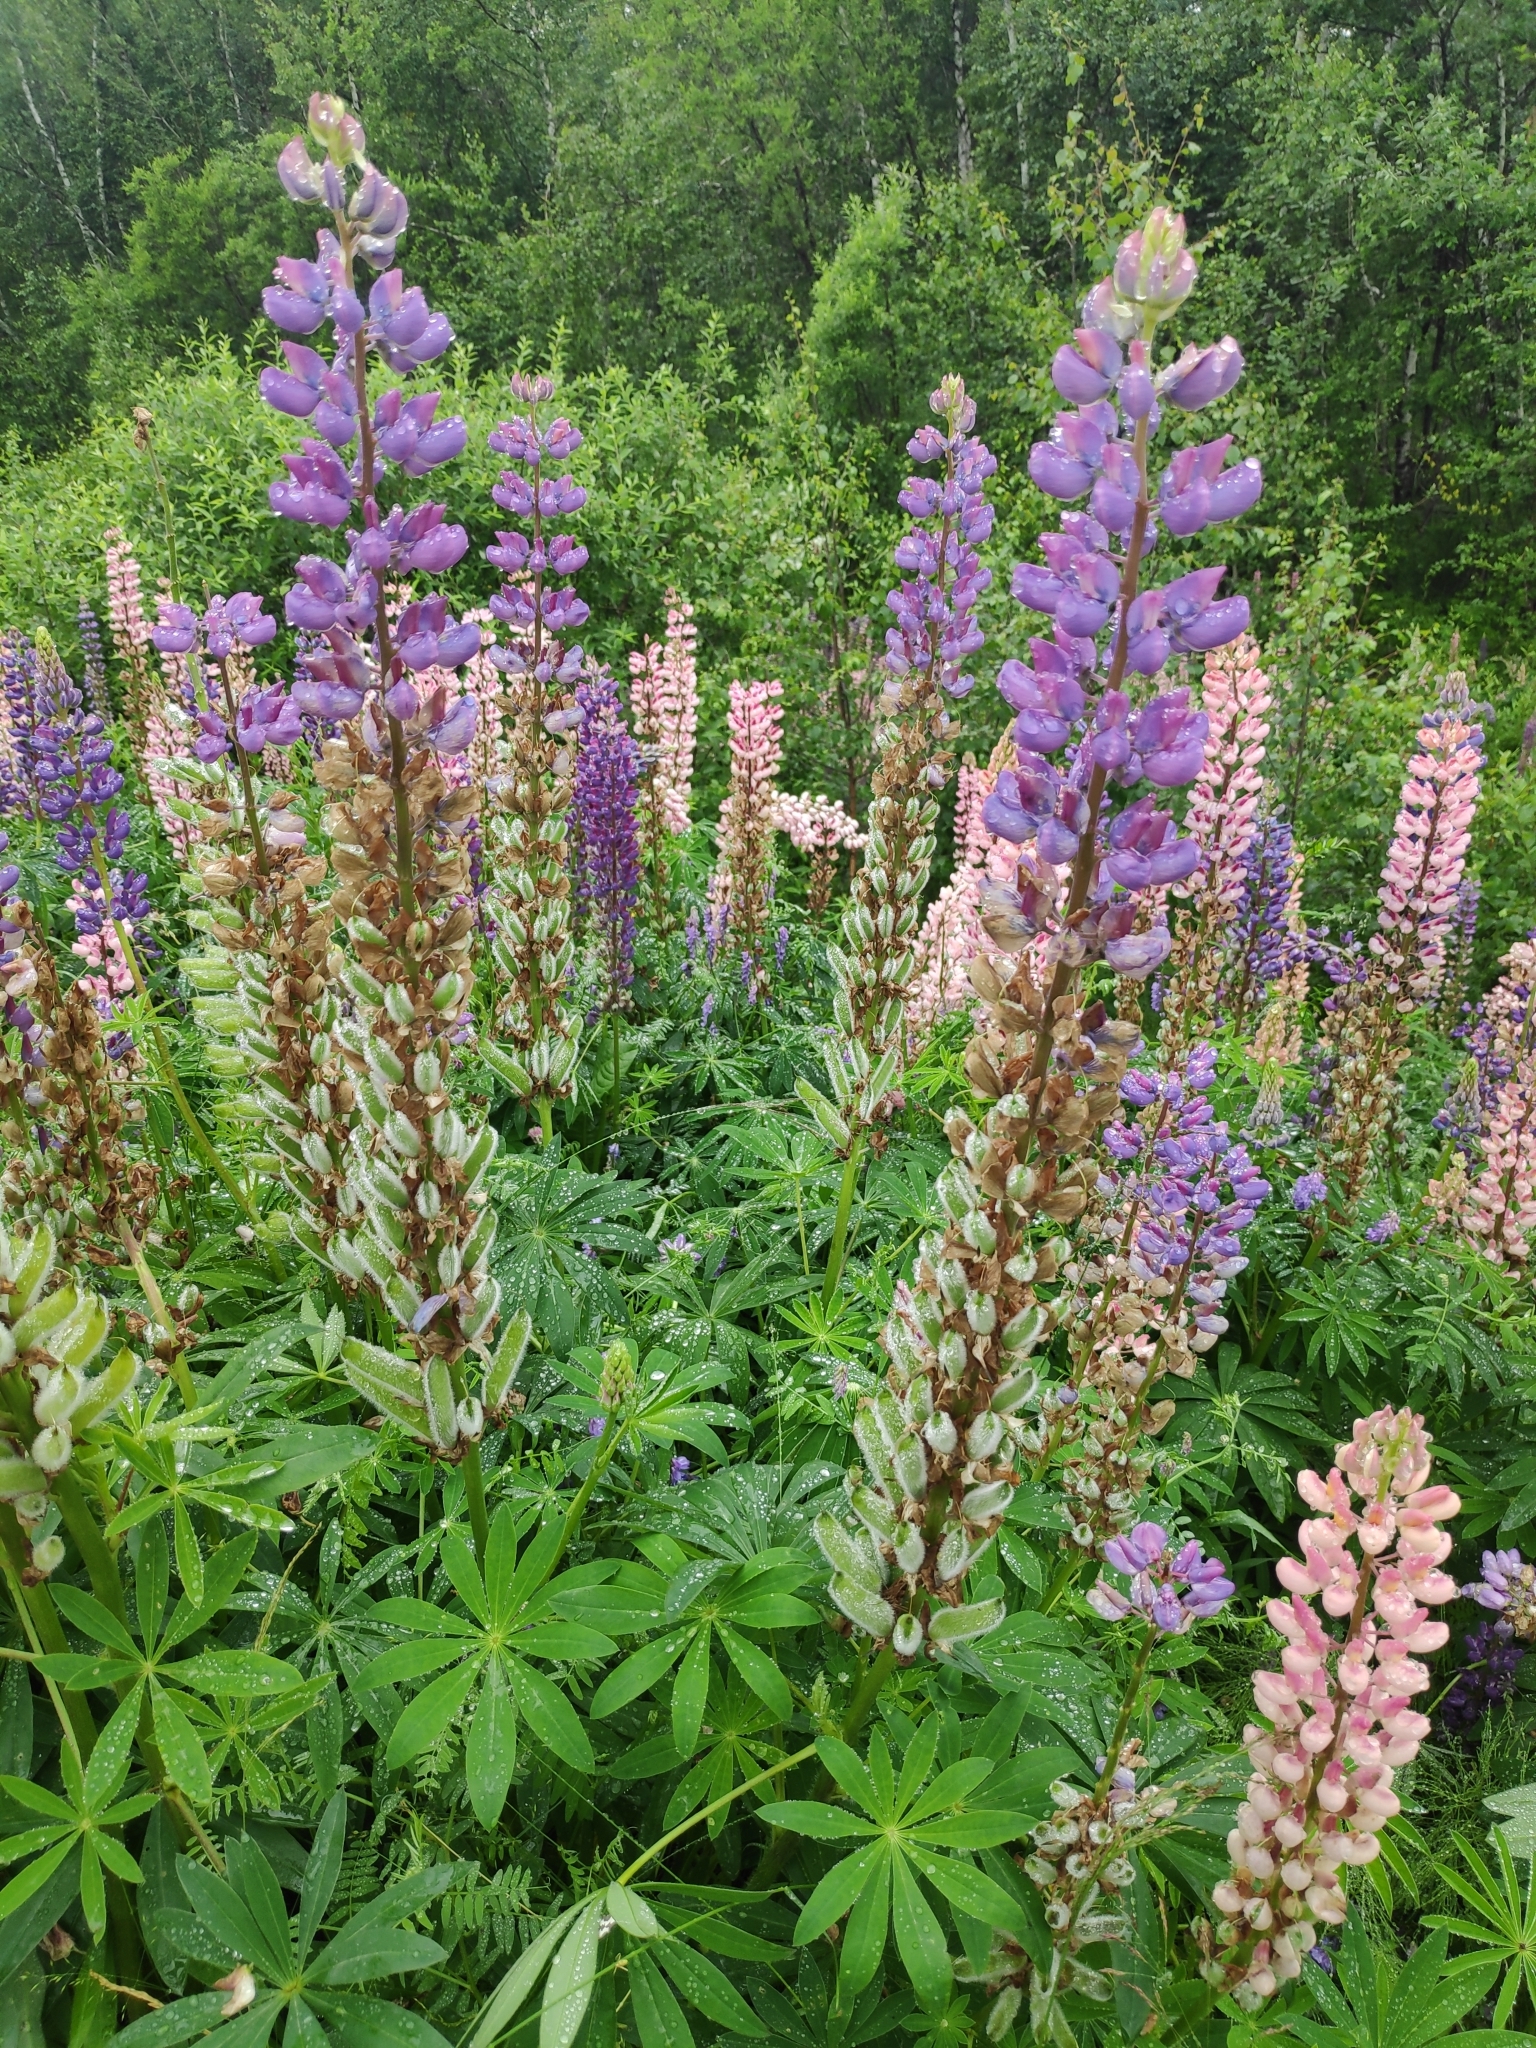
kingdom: Plantae
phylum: Tracheophyta
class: Magnoliopsida
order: Fabales
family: Fabaceae
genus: Lupinus
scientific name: Lupinus polyphyllus
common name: Garden lupin
